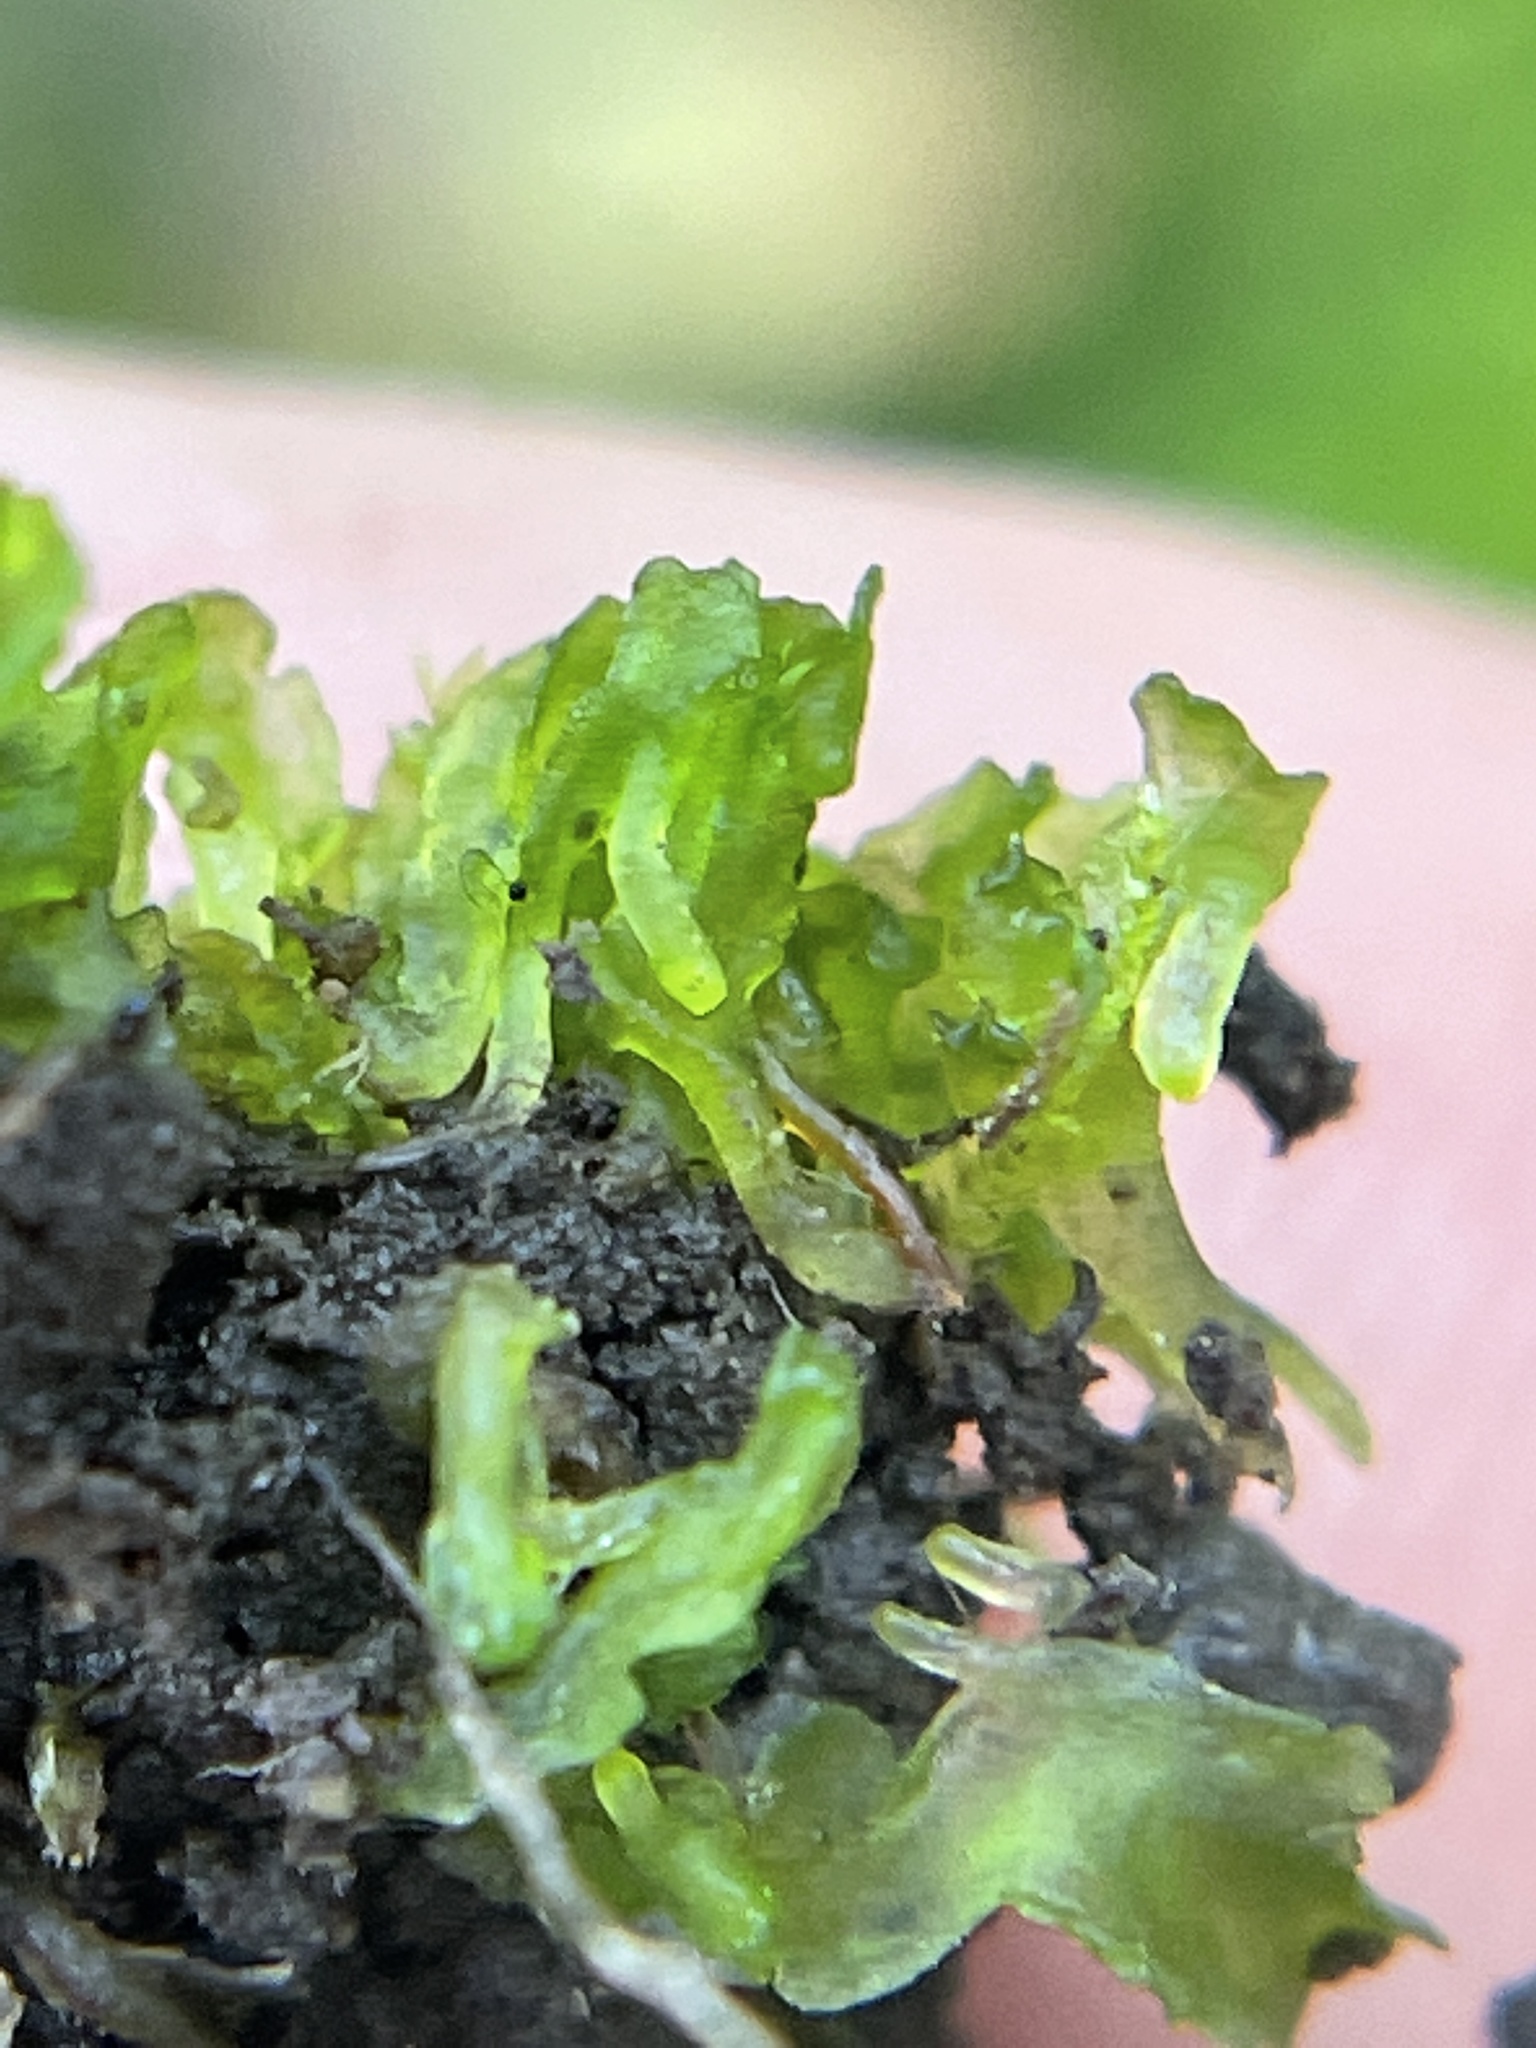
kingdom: Plantae
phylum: Anthocerotophyta
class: Anthocerotopsida
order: Phymatocerotales
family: Phymatocerotaceae
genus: Phymatoceros
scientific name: Phymatoceros bulbiculosus
